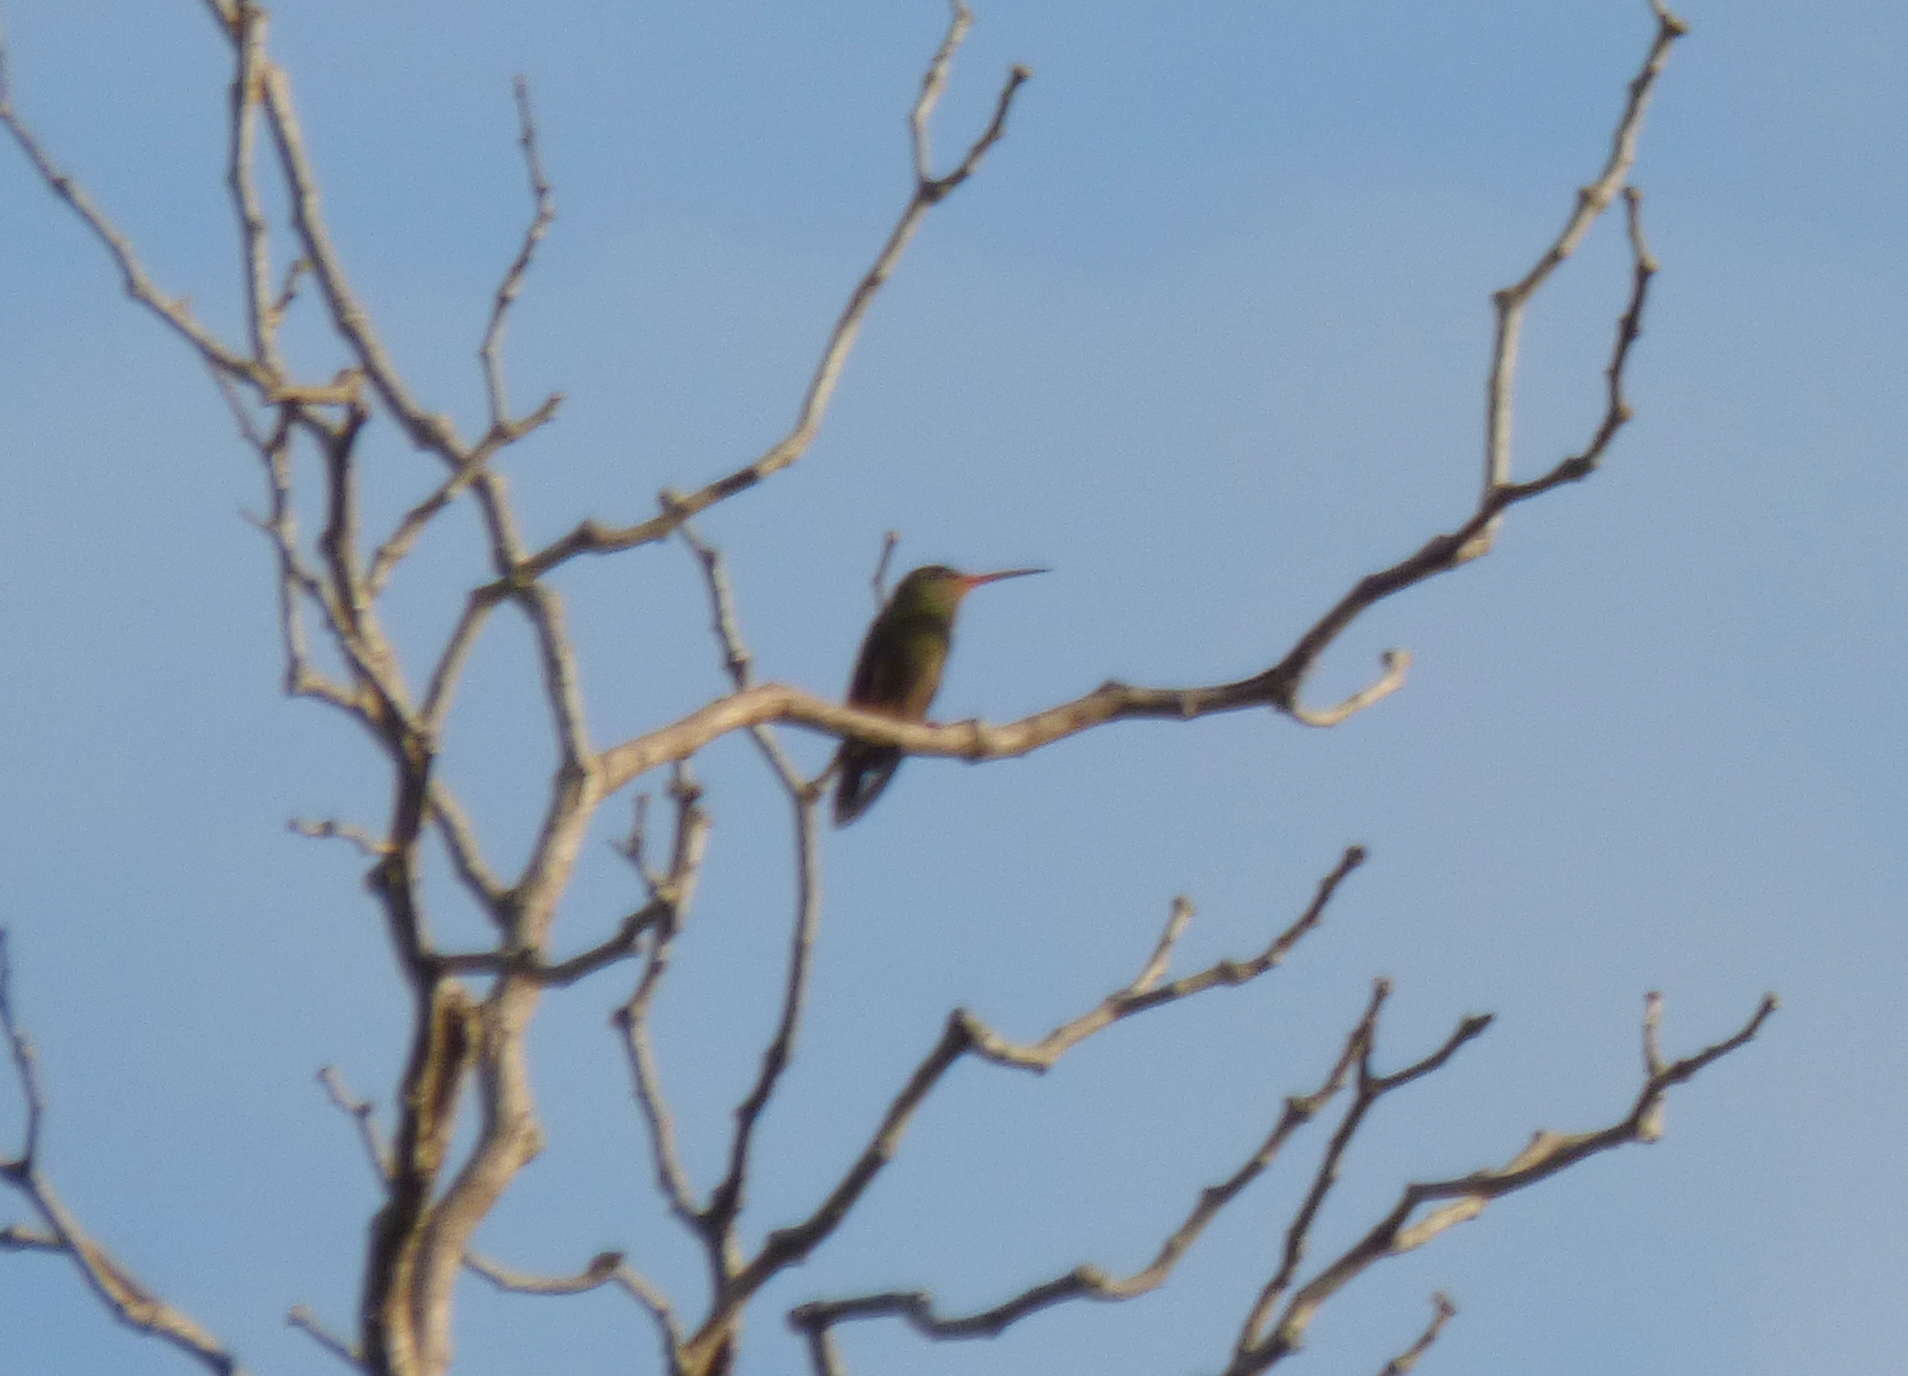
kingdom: Animalia
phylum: Chordata
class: Aves
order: Apodiformes
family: Trochilidae
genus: Hylocharis
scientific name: Hylocharis chrysura
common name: Gilded sapphire
